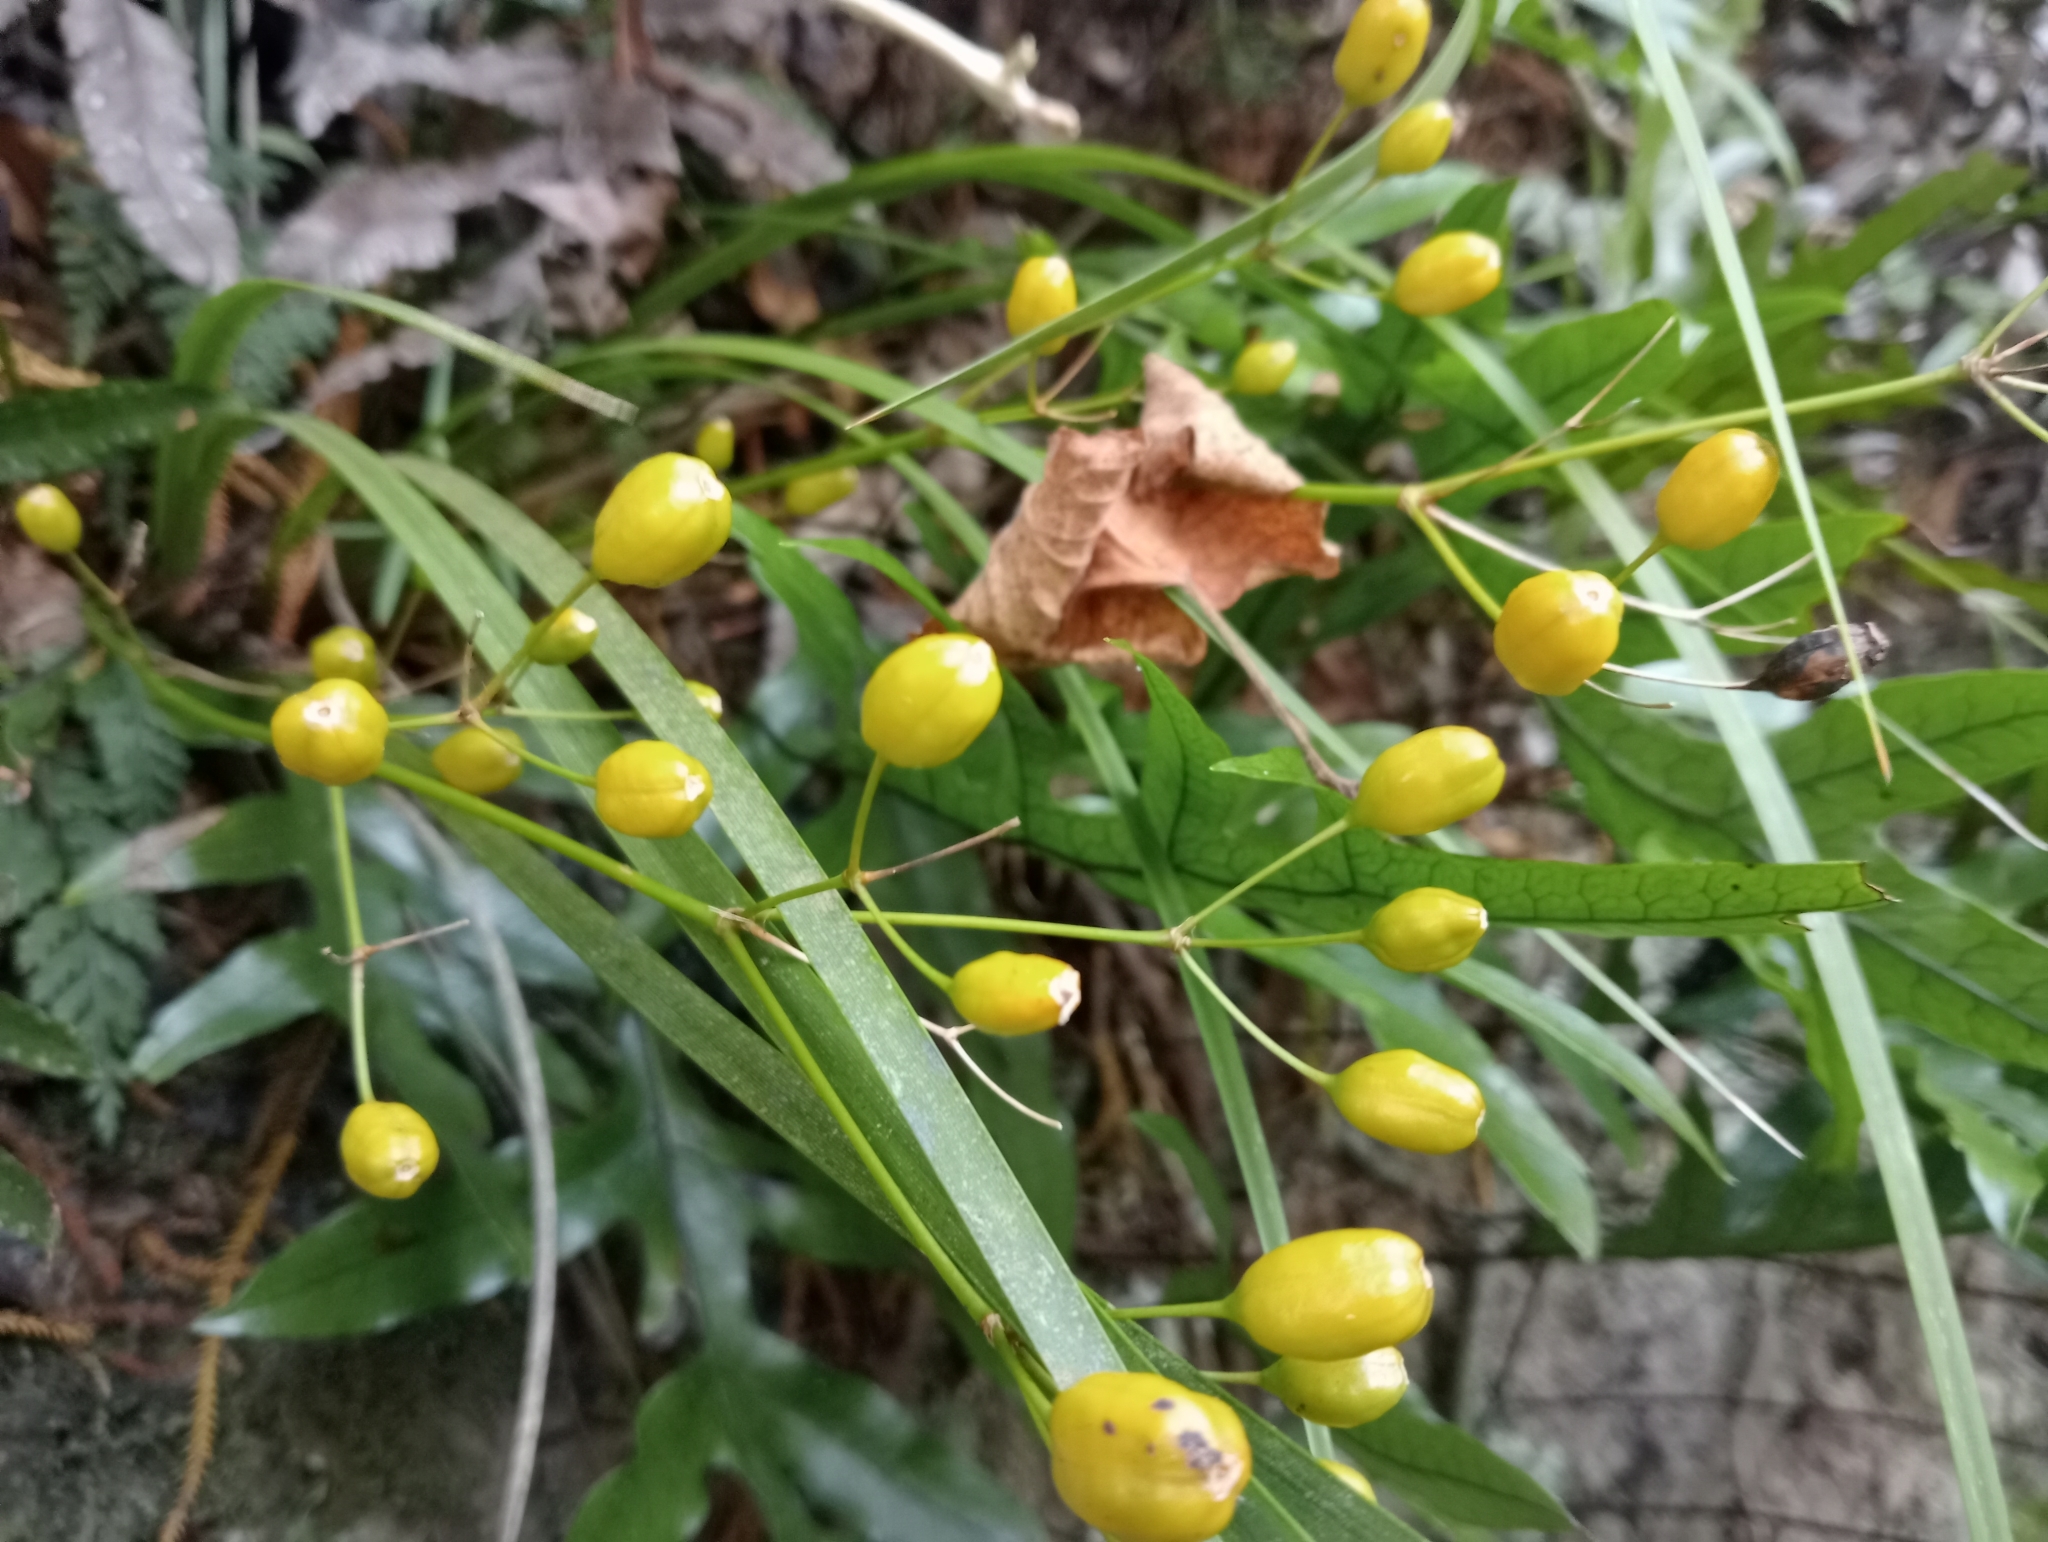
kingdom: Plantae
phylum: Tracheophyta
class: Liliopsida
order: Asparagales
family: Iridaceae
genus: Libertia
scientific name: Libertia ixioides
